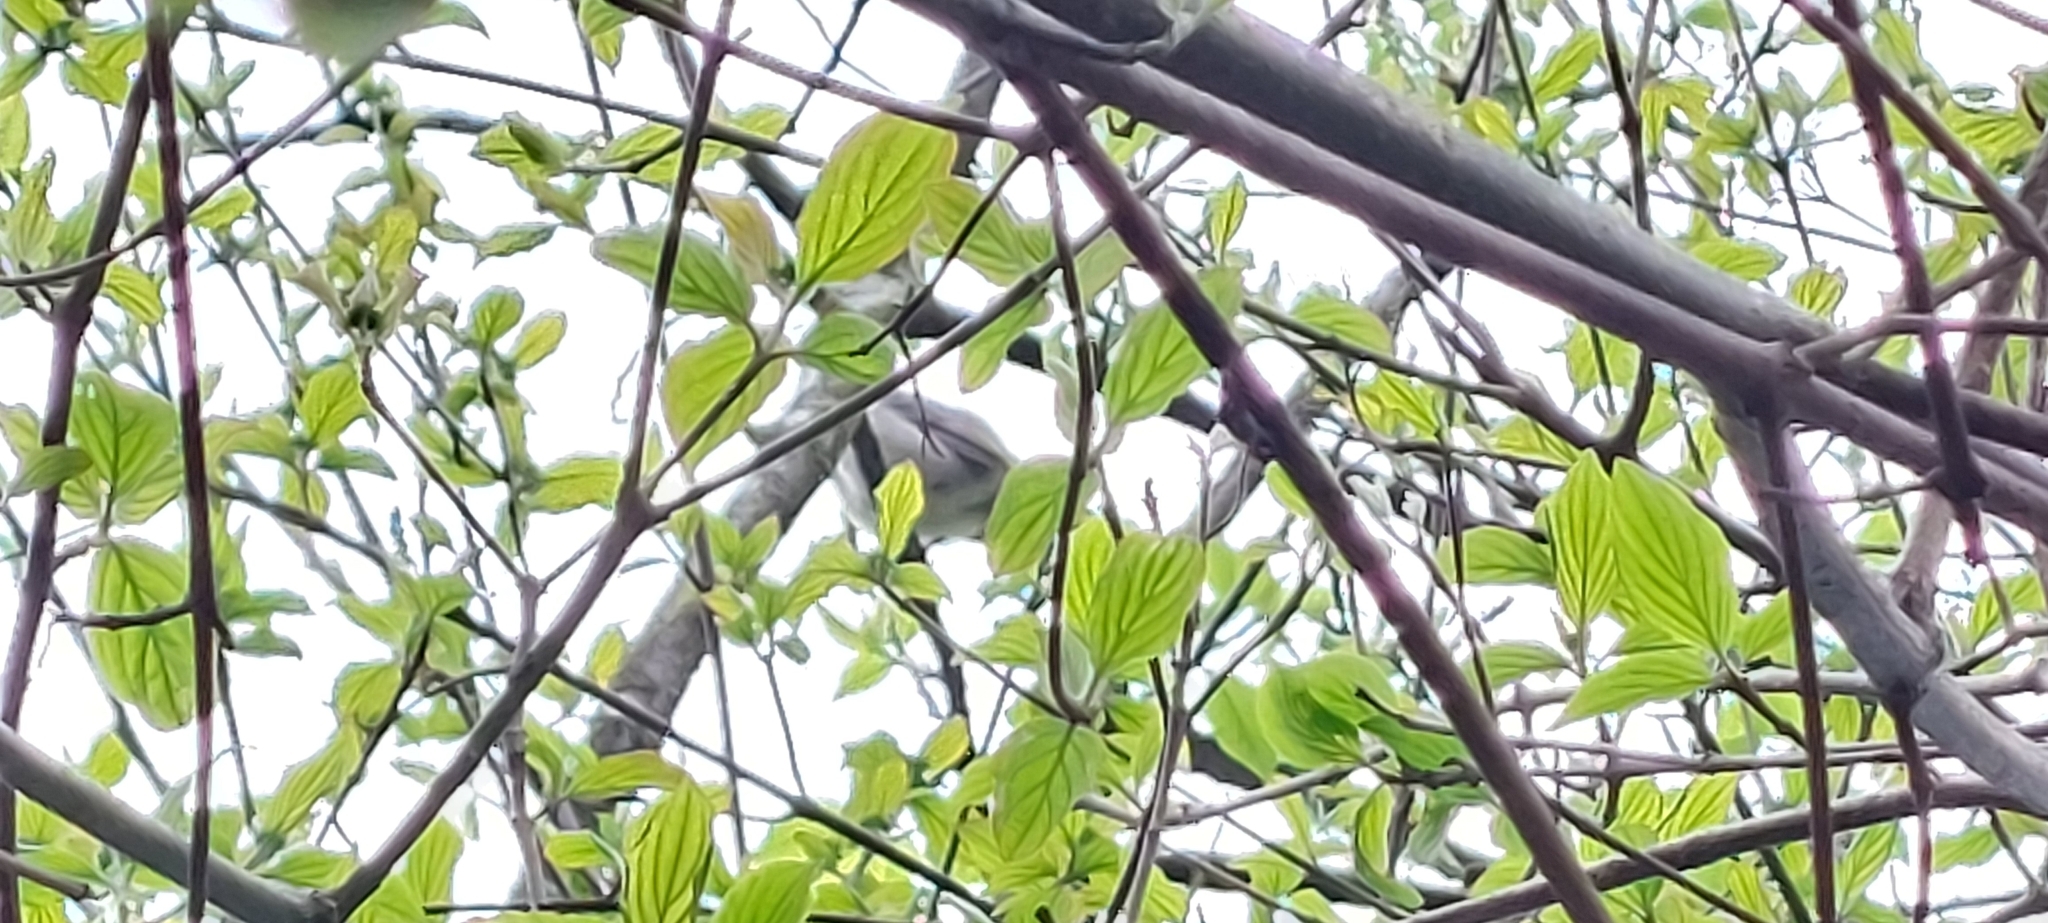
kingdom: Animalia
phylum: Chordata
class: Aves
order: Passeriformes
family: Sylviidae
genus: Sylvia
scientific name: Sylvia atricapilla
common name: Eurasian blackcap
